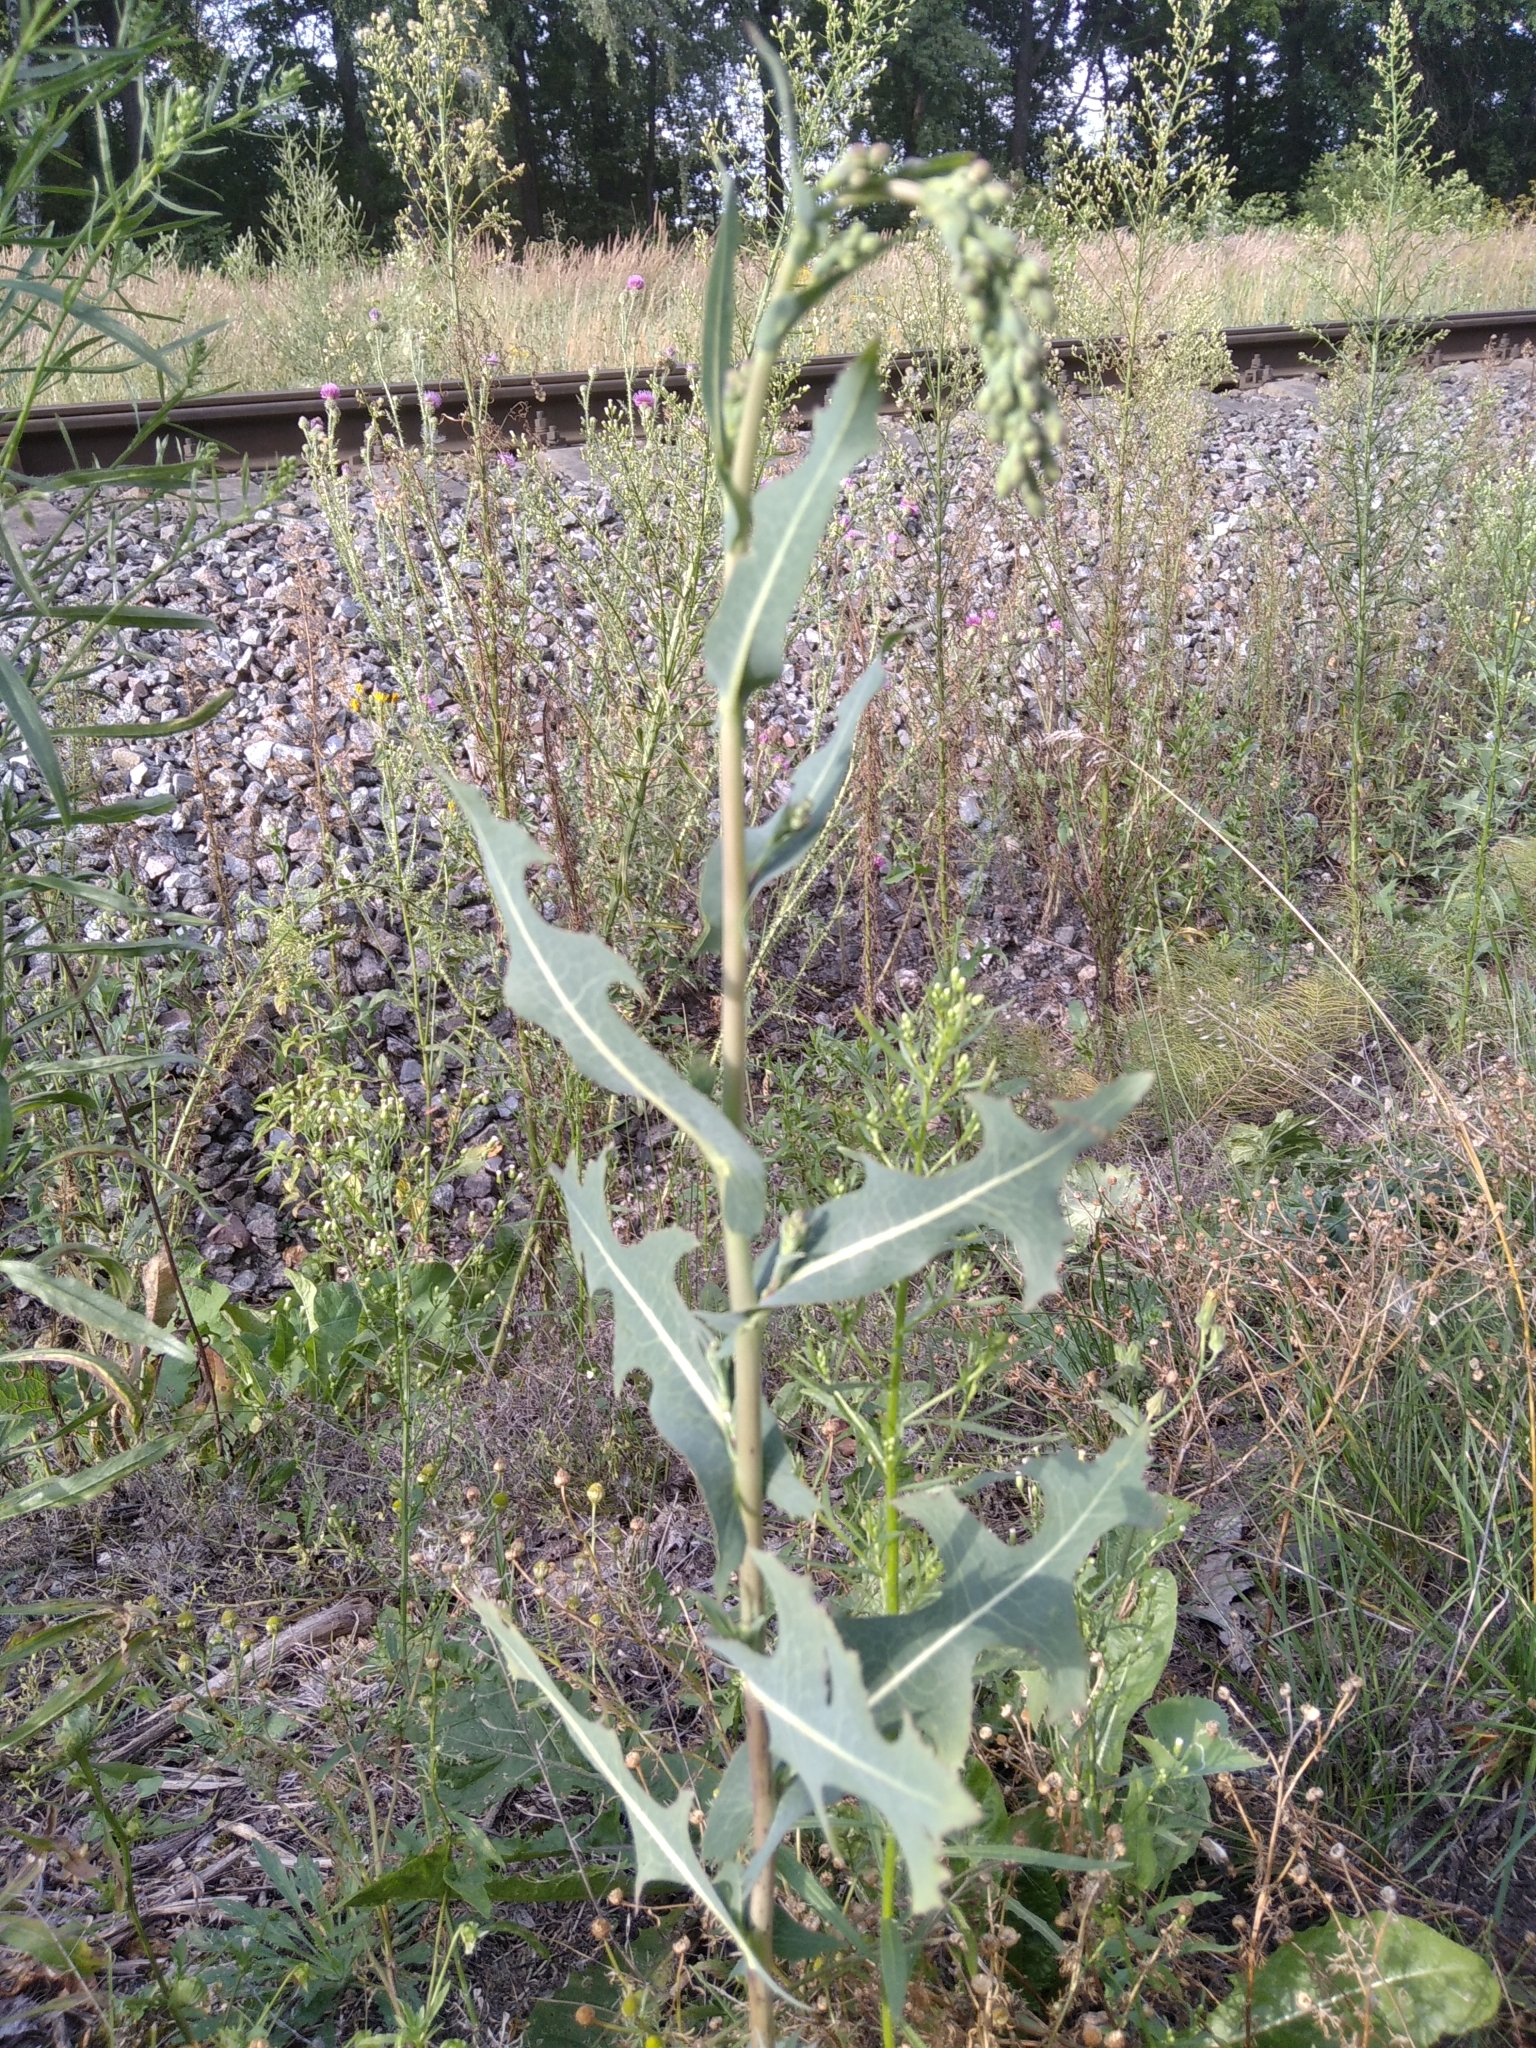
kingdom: Plantae
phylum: Tracheophyta
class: Magnoliopsida
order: Asterales
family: Asteraceae
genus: Lactuca
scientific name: Lactuca serriola
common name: Prickly lettuce
